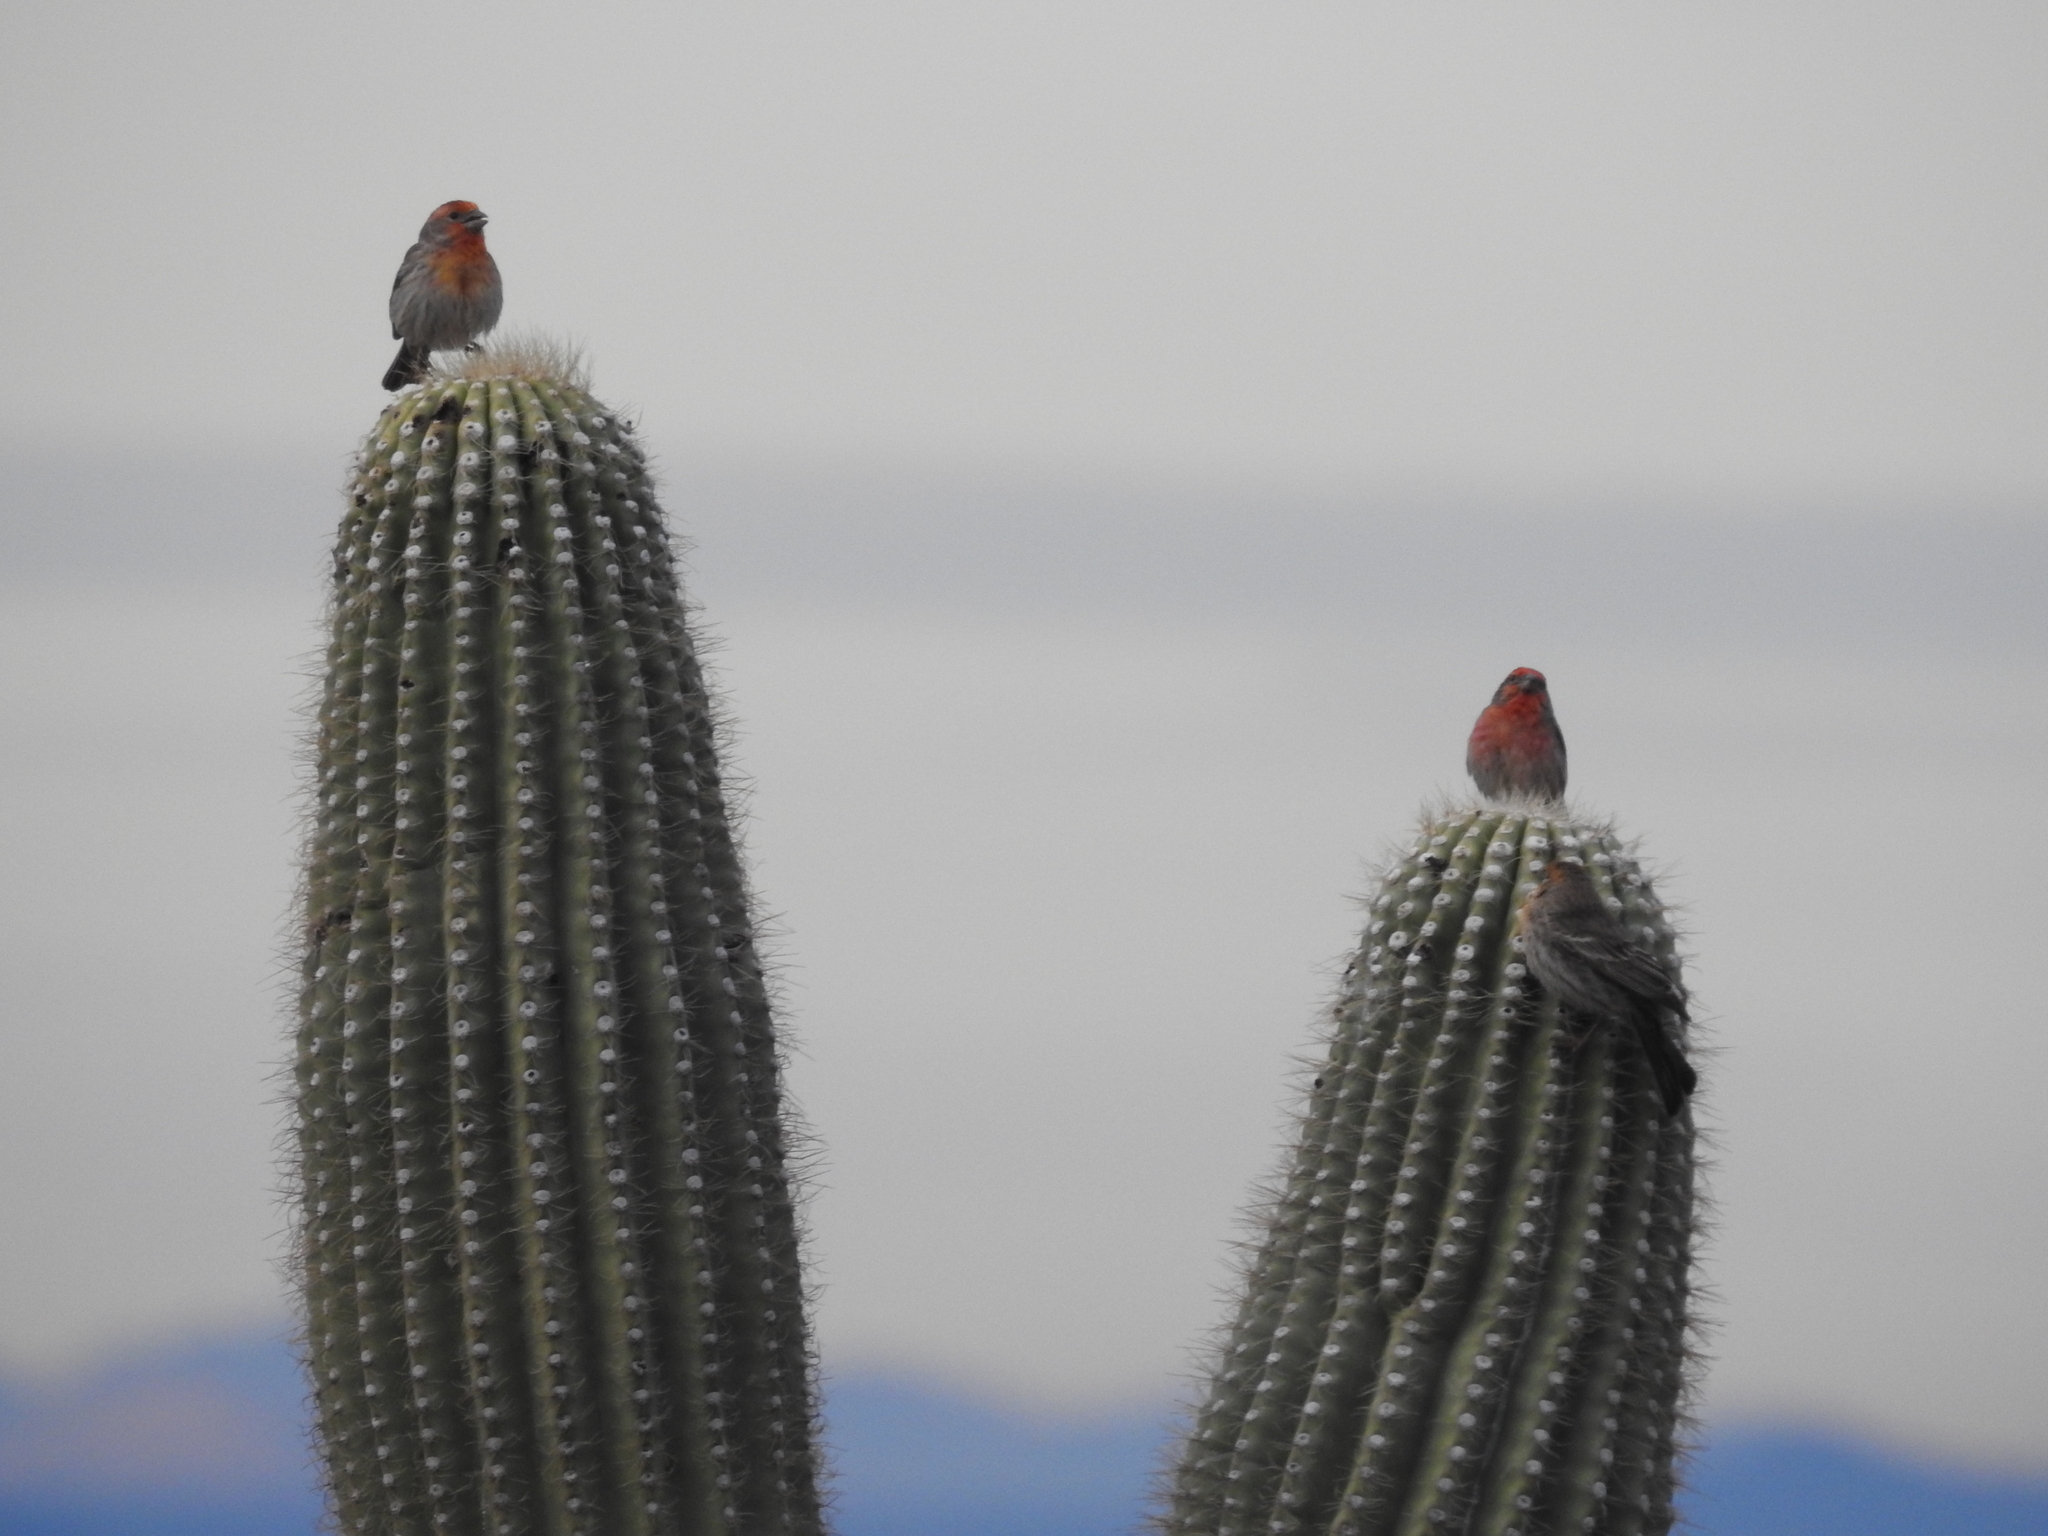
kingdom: Animalia
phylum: Chordata
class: Aves
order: Passeriformes
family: Fringillidae
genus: Haemorhous
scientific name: Haemorhous mexicanus
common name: House finch
